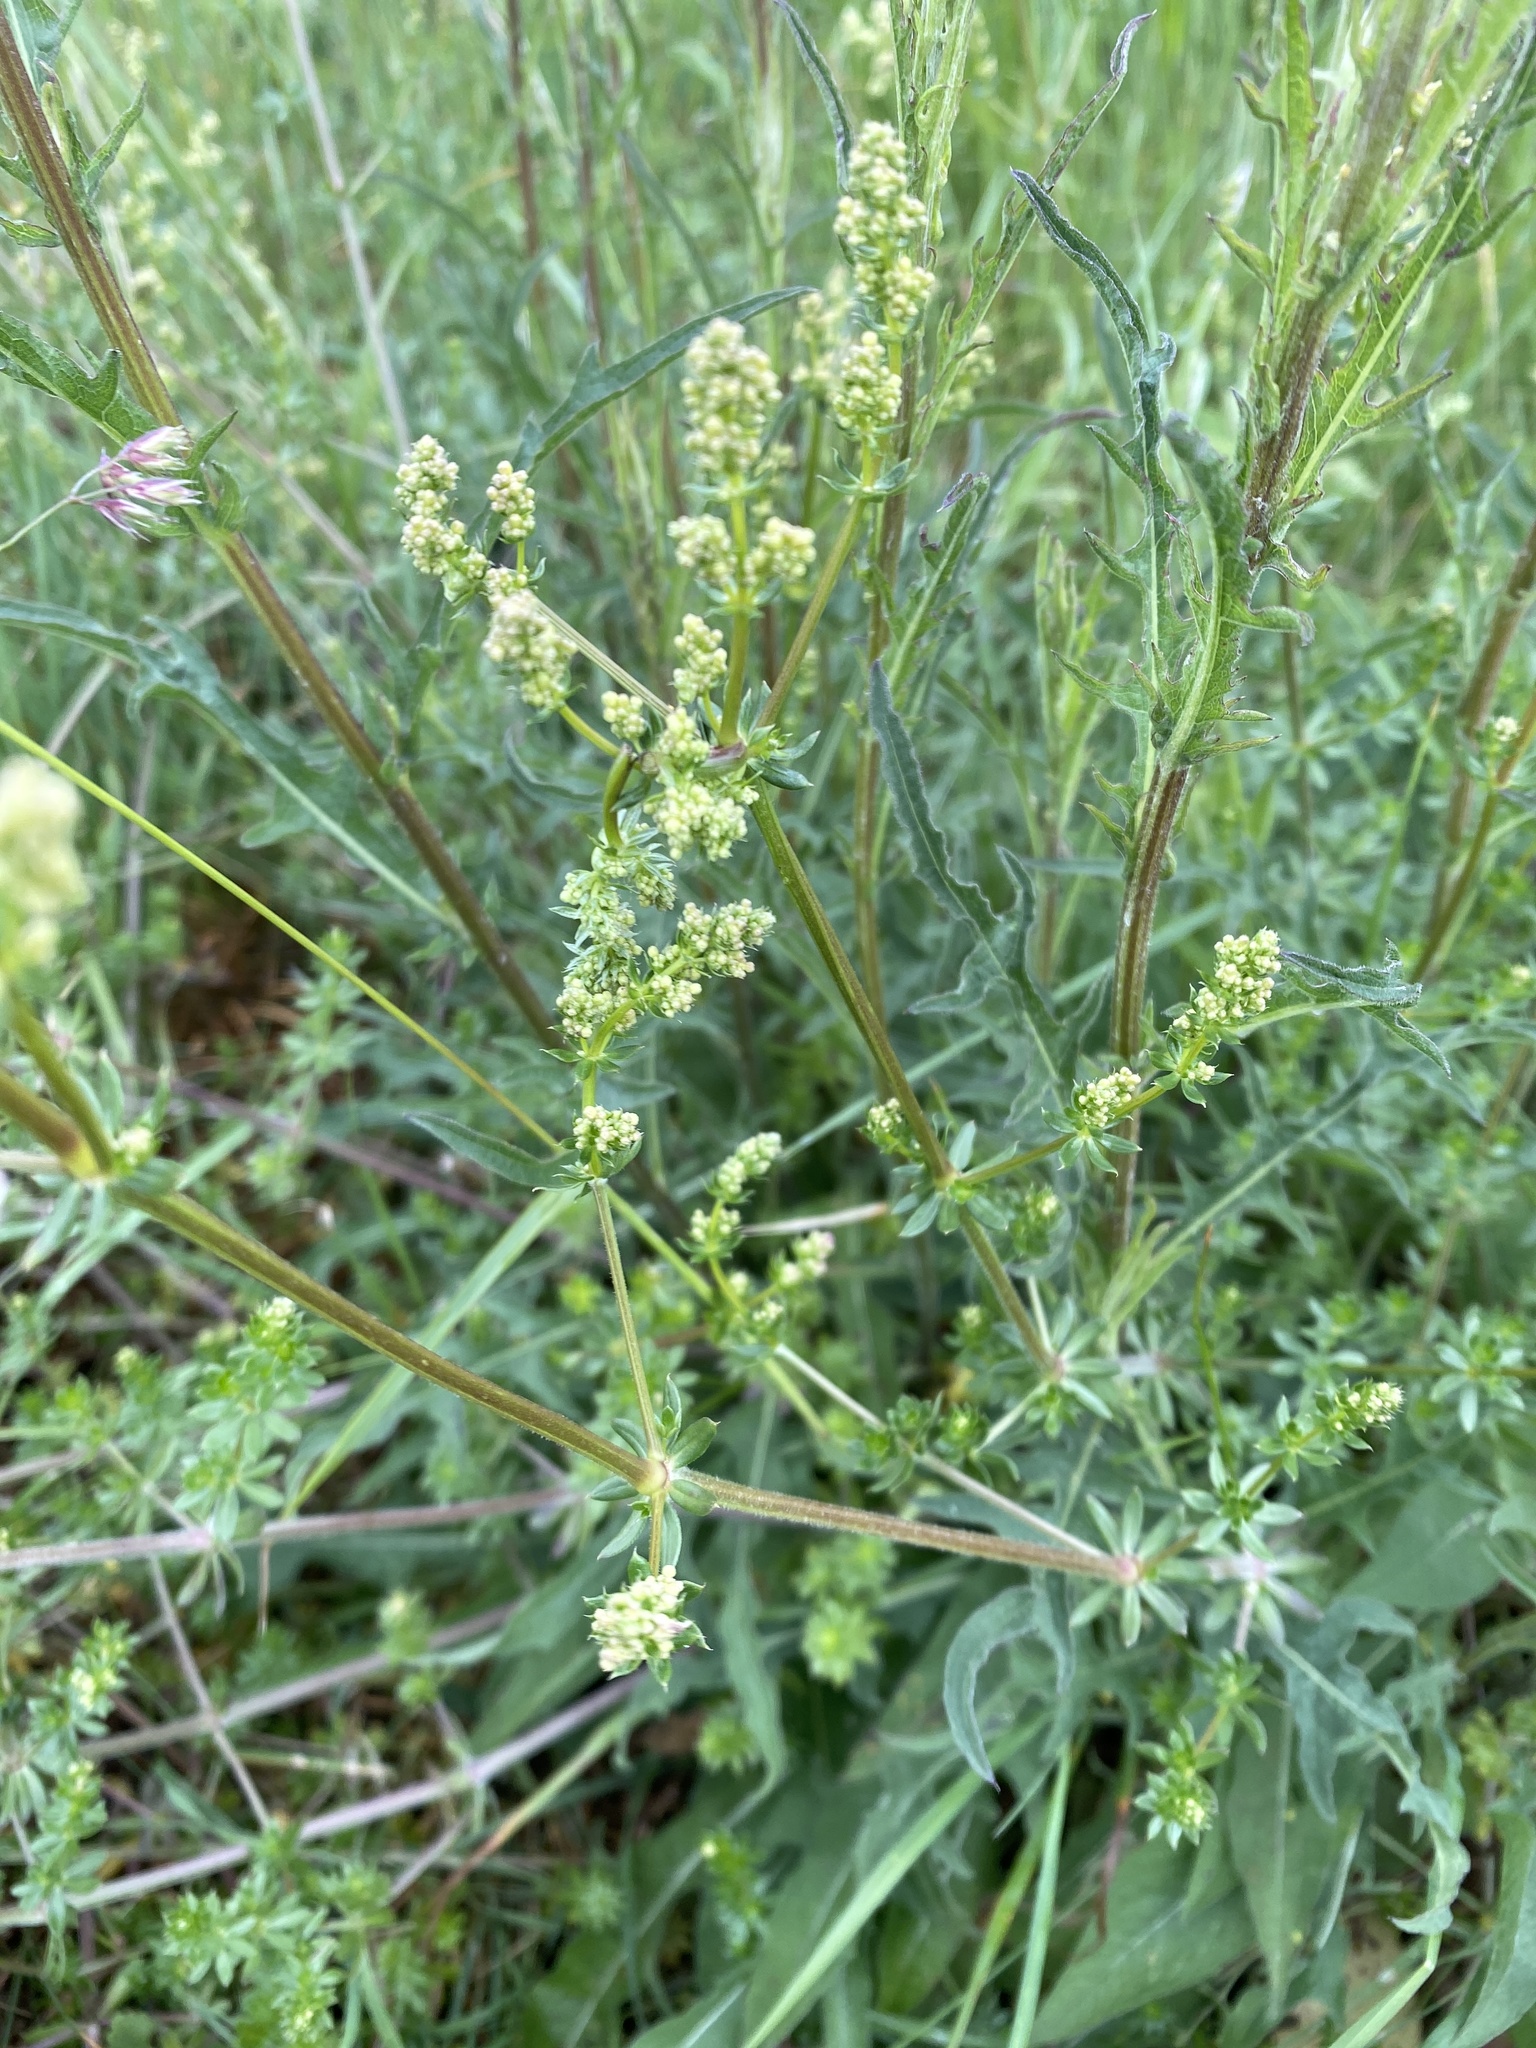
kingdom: Plantae
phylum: Tracheophyta
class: Magnoliopsida
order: Gentianales
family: Rubiaceae
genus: Galium
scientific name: Galium album
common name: White bedstraw
